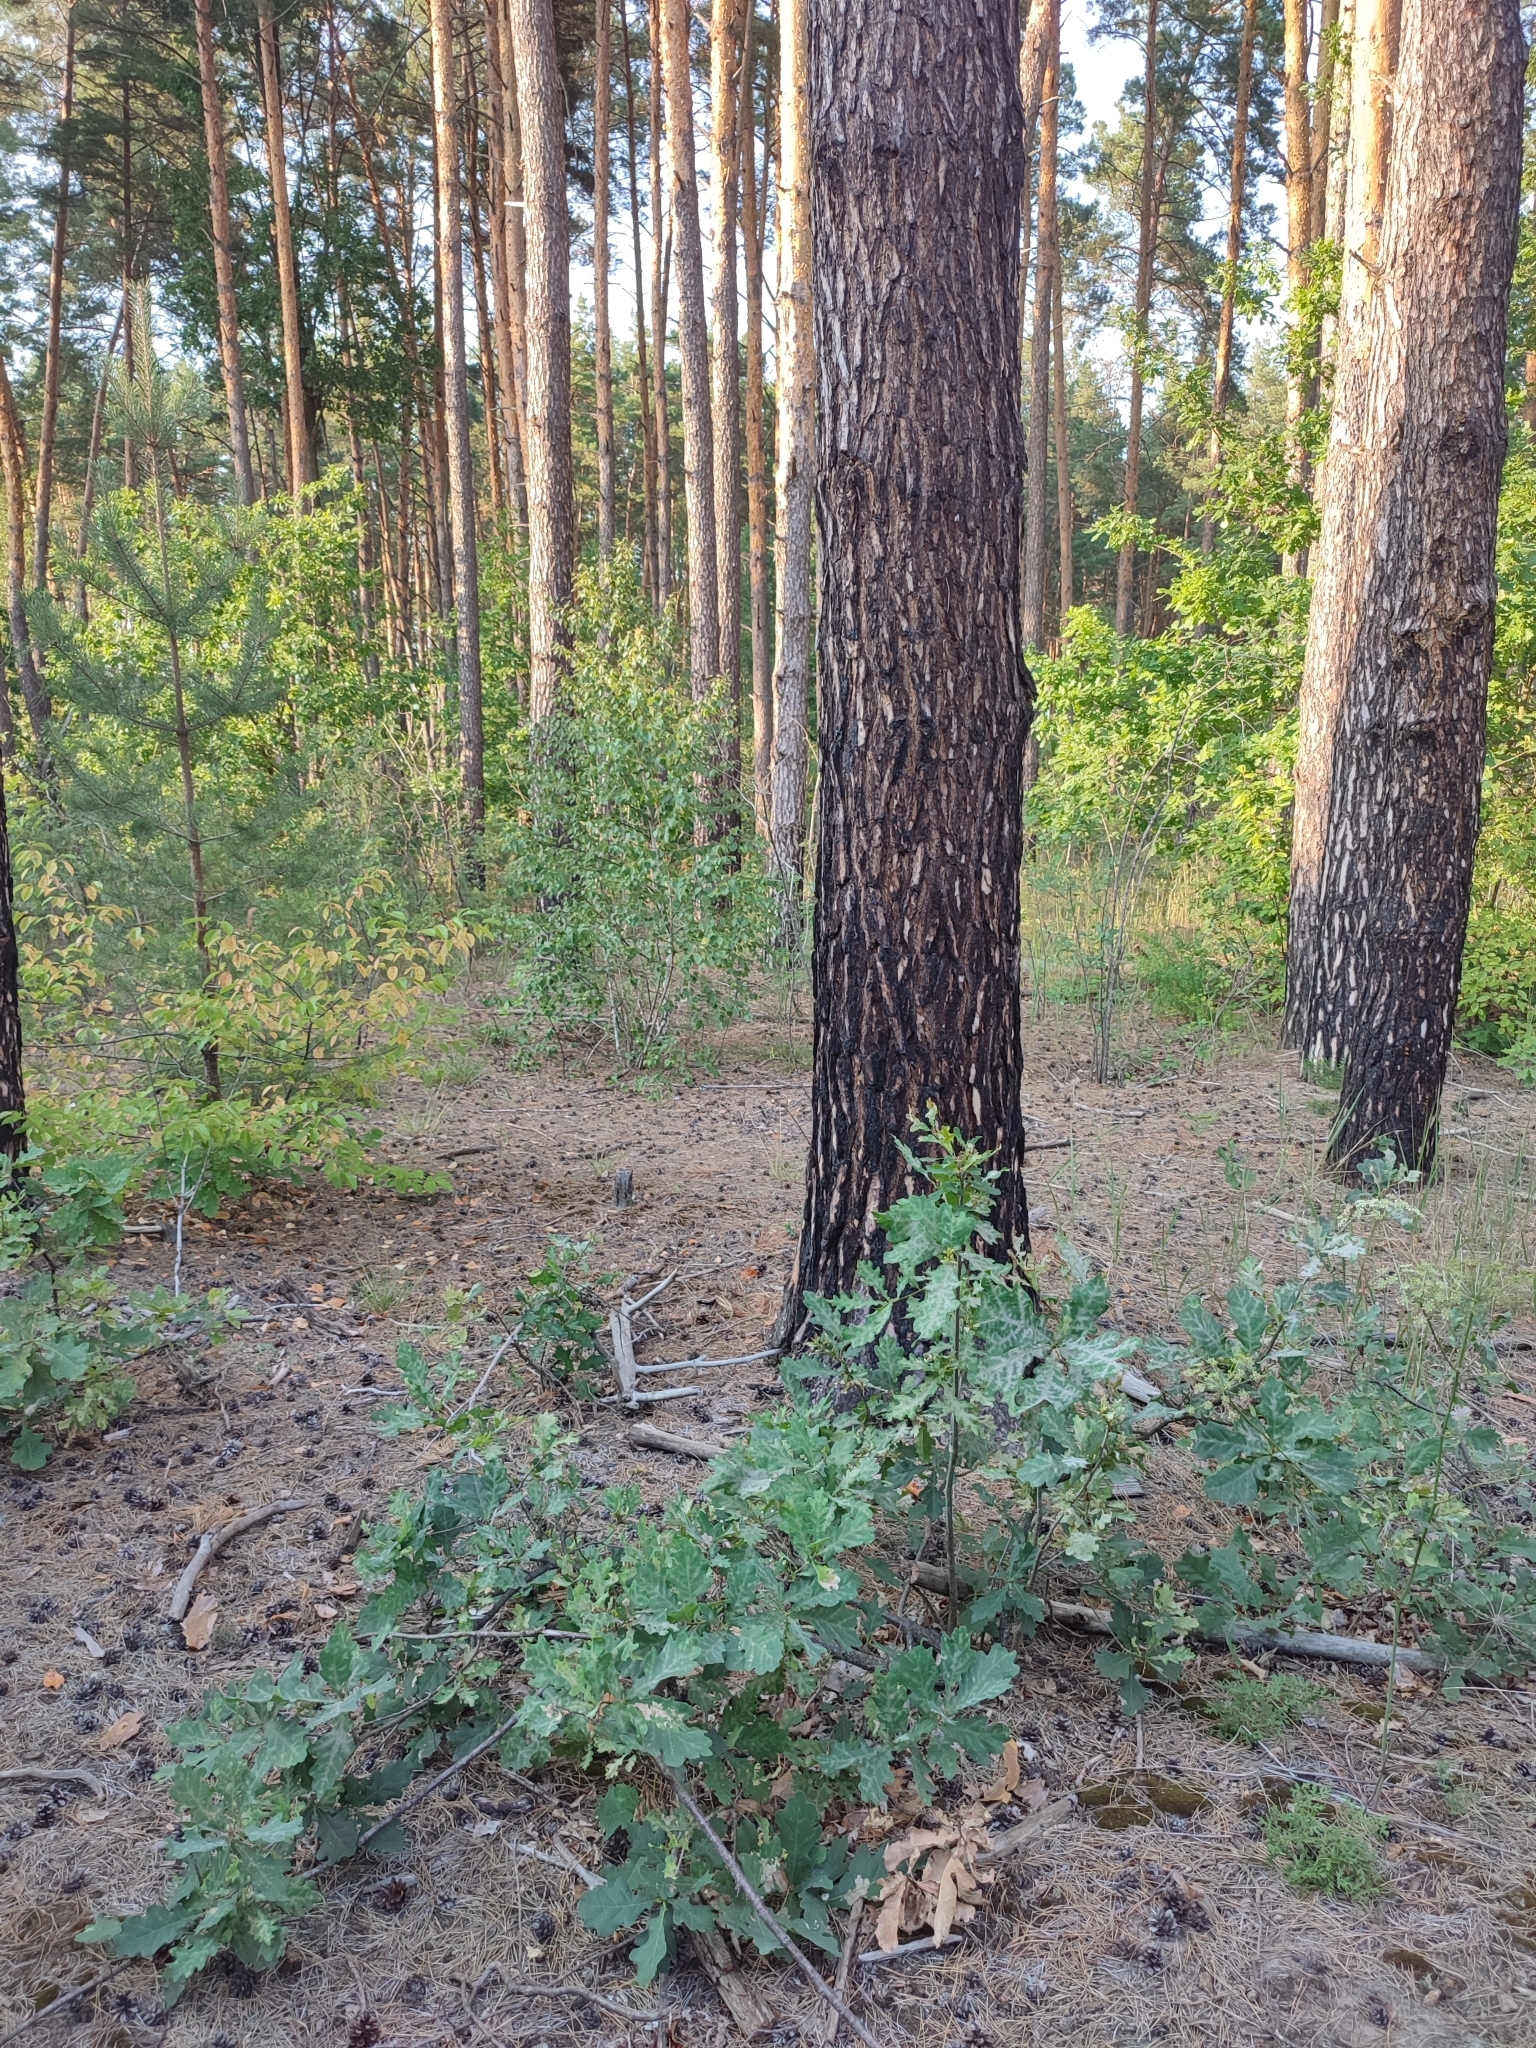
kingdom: Plantae
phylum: Tracheophyta
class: Magnoliopsida
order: Fagales
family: Fagaceae
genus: Quercus
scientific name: Quercus robur
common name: Pedunculate oak
